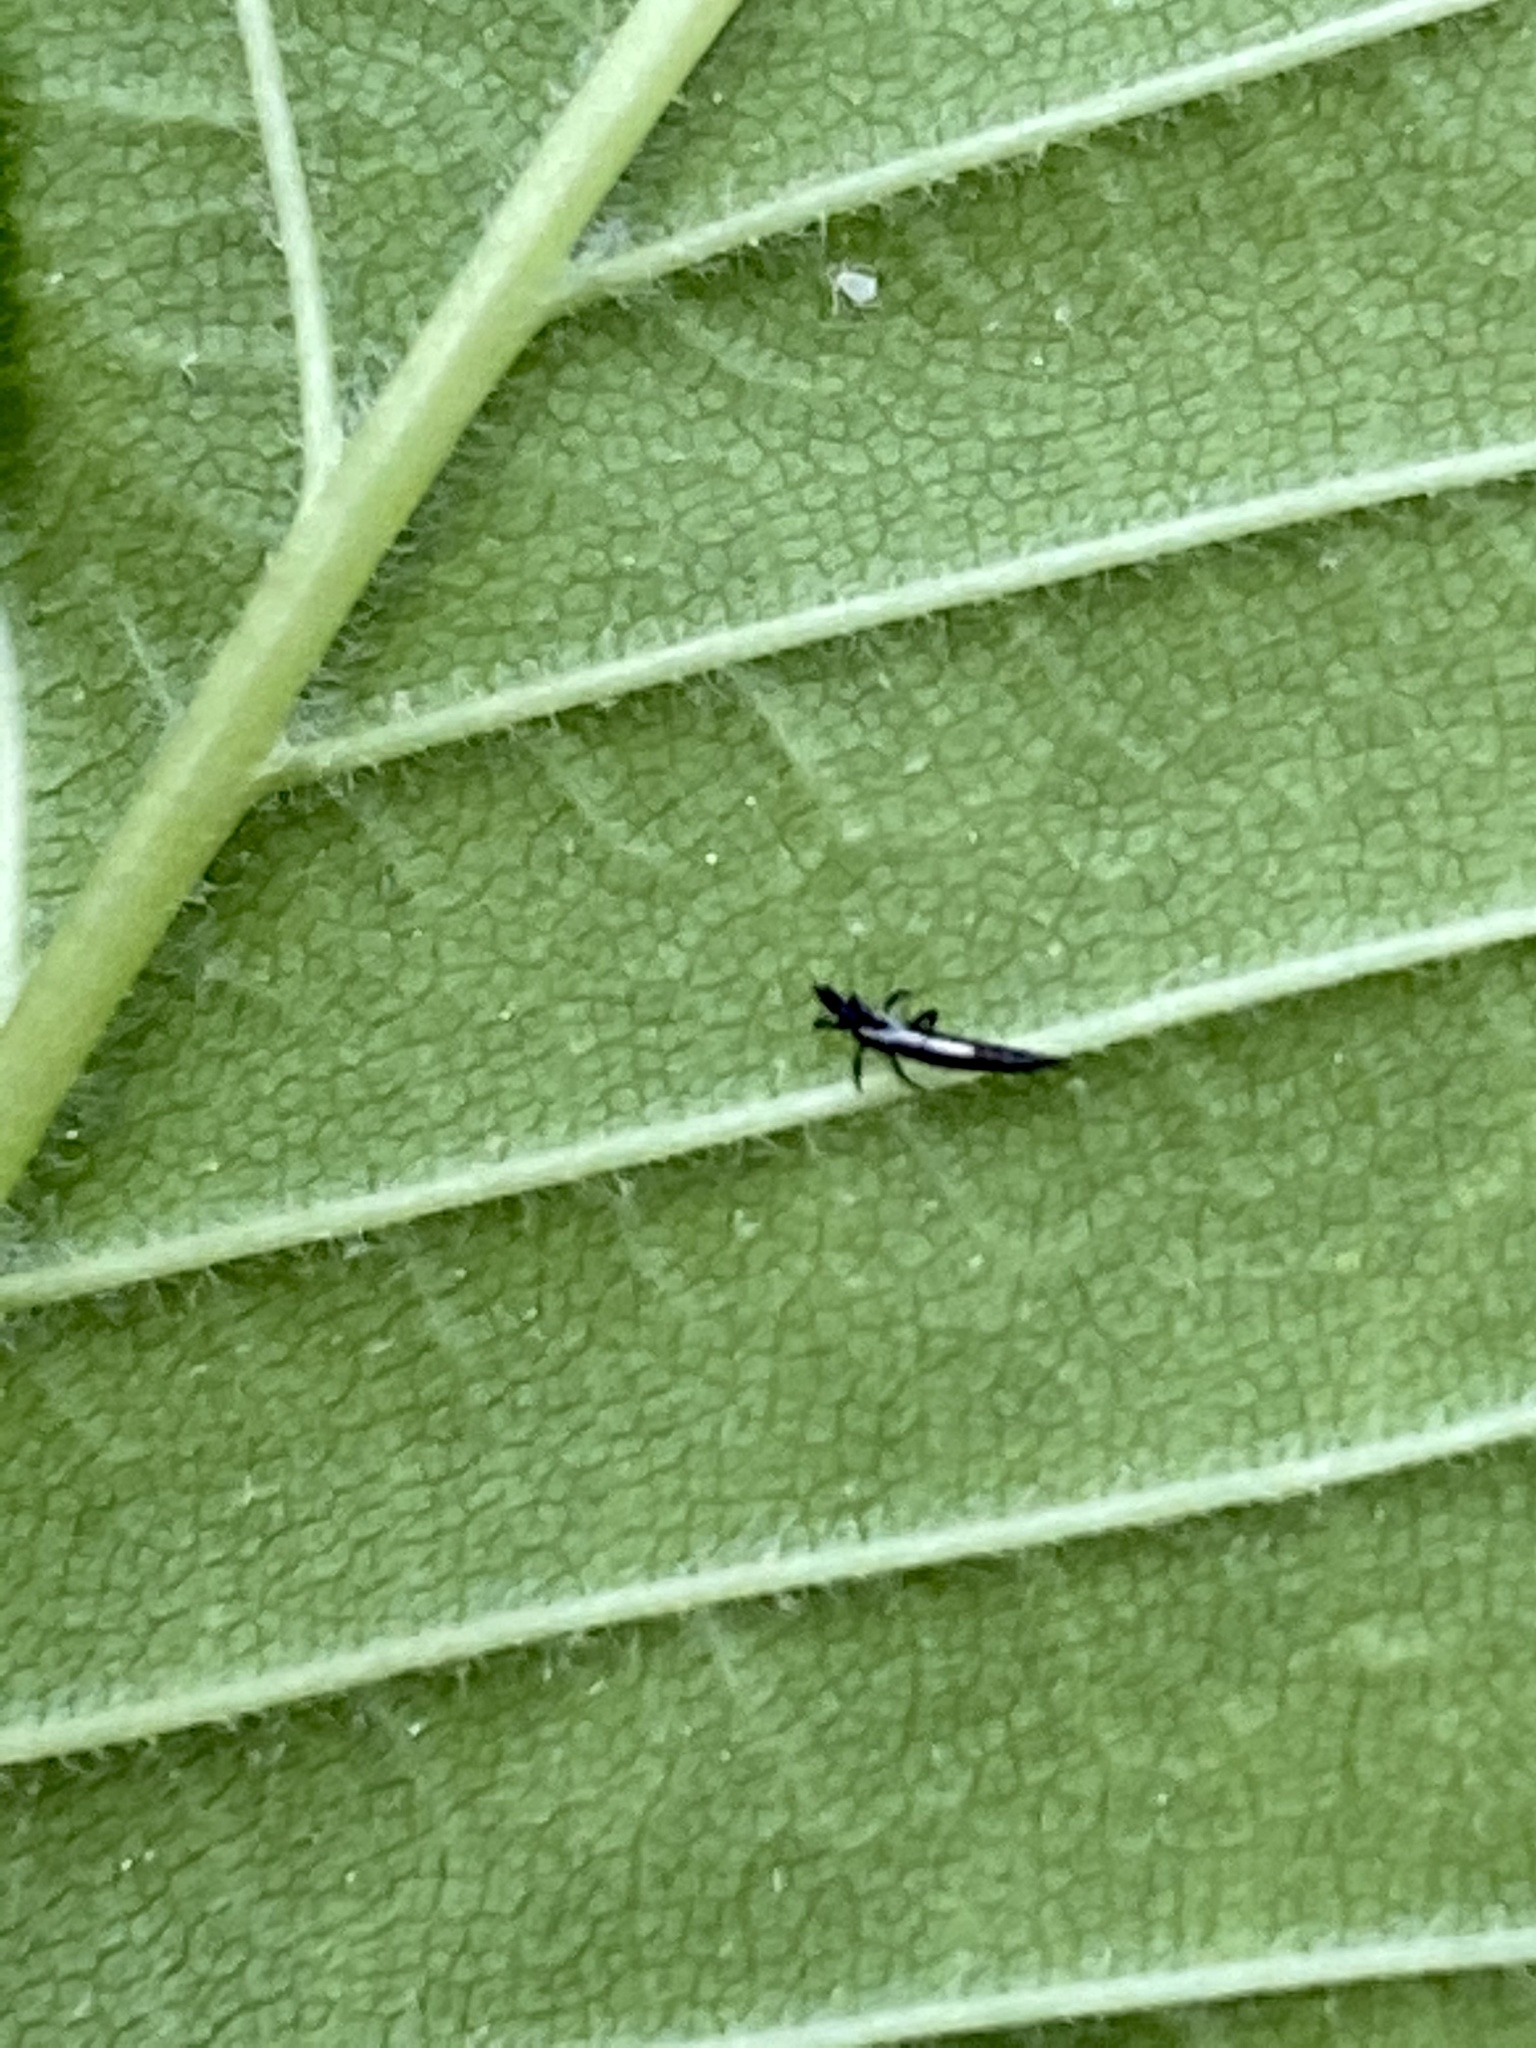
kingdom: Animalia
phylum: Arthropoda
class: Insecta
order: Diptera
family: Agromyzidae
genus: Agromyza
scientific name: Agromyza aristata
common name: Elm agromyzid leafminer
